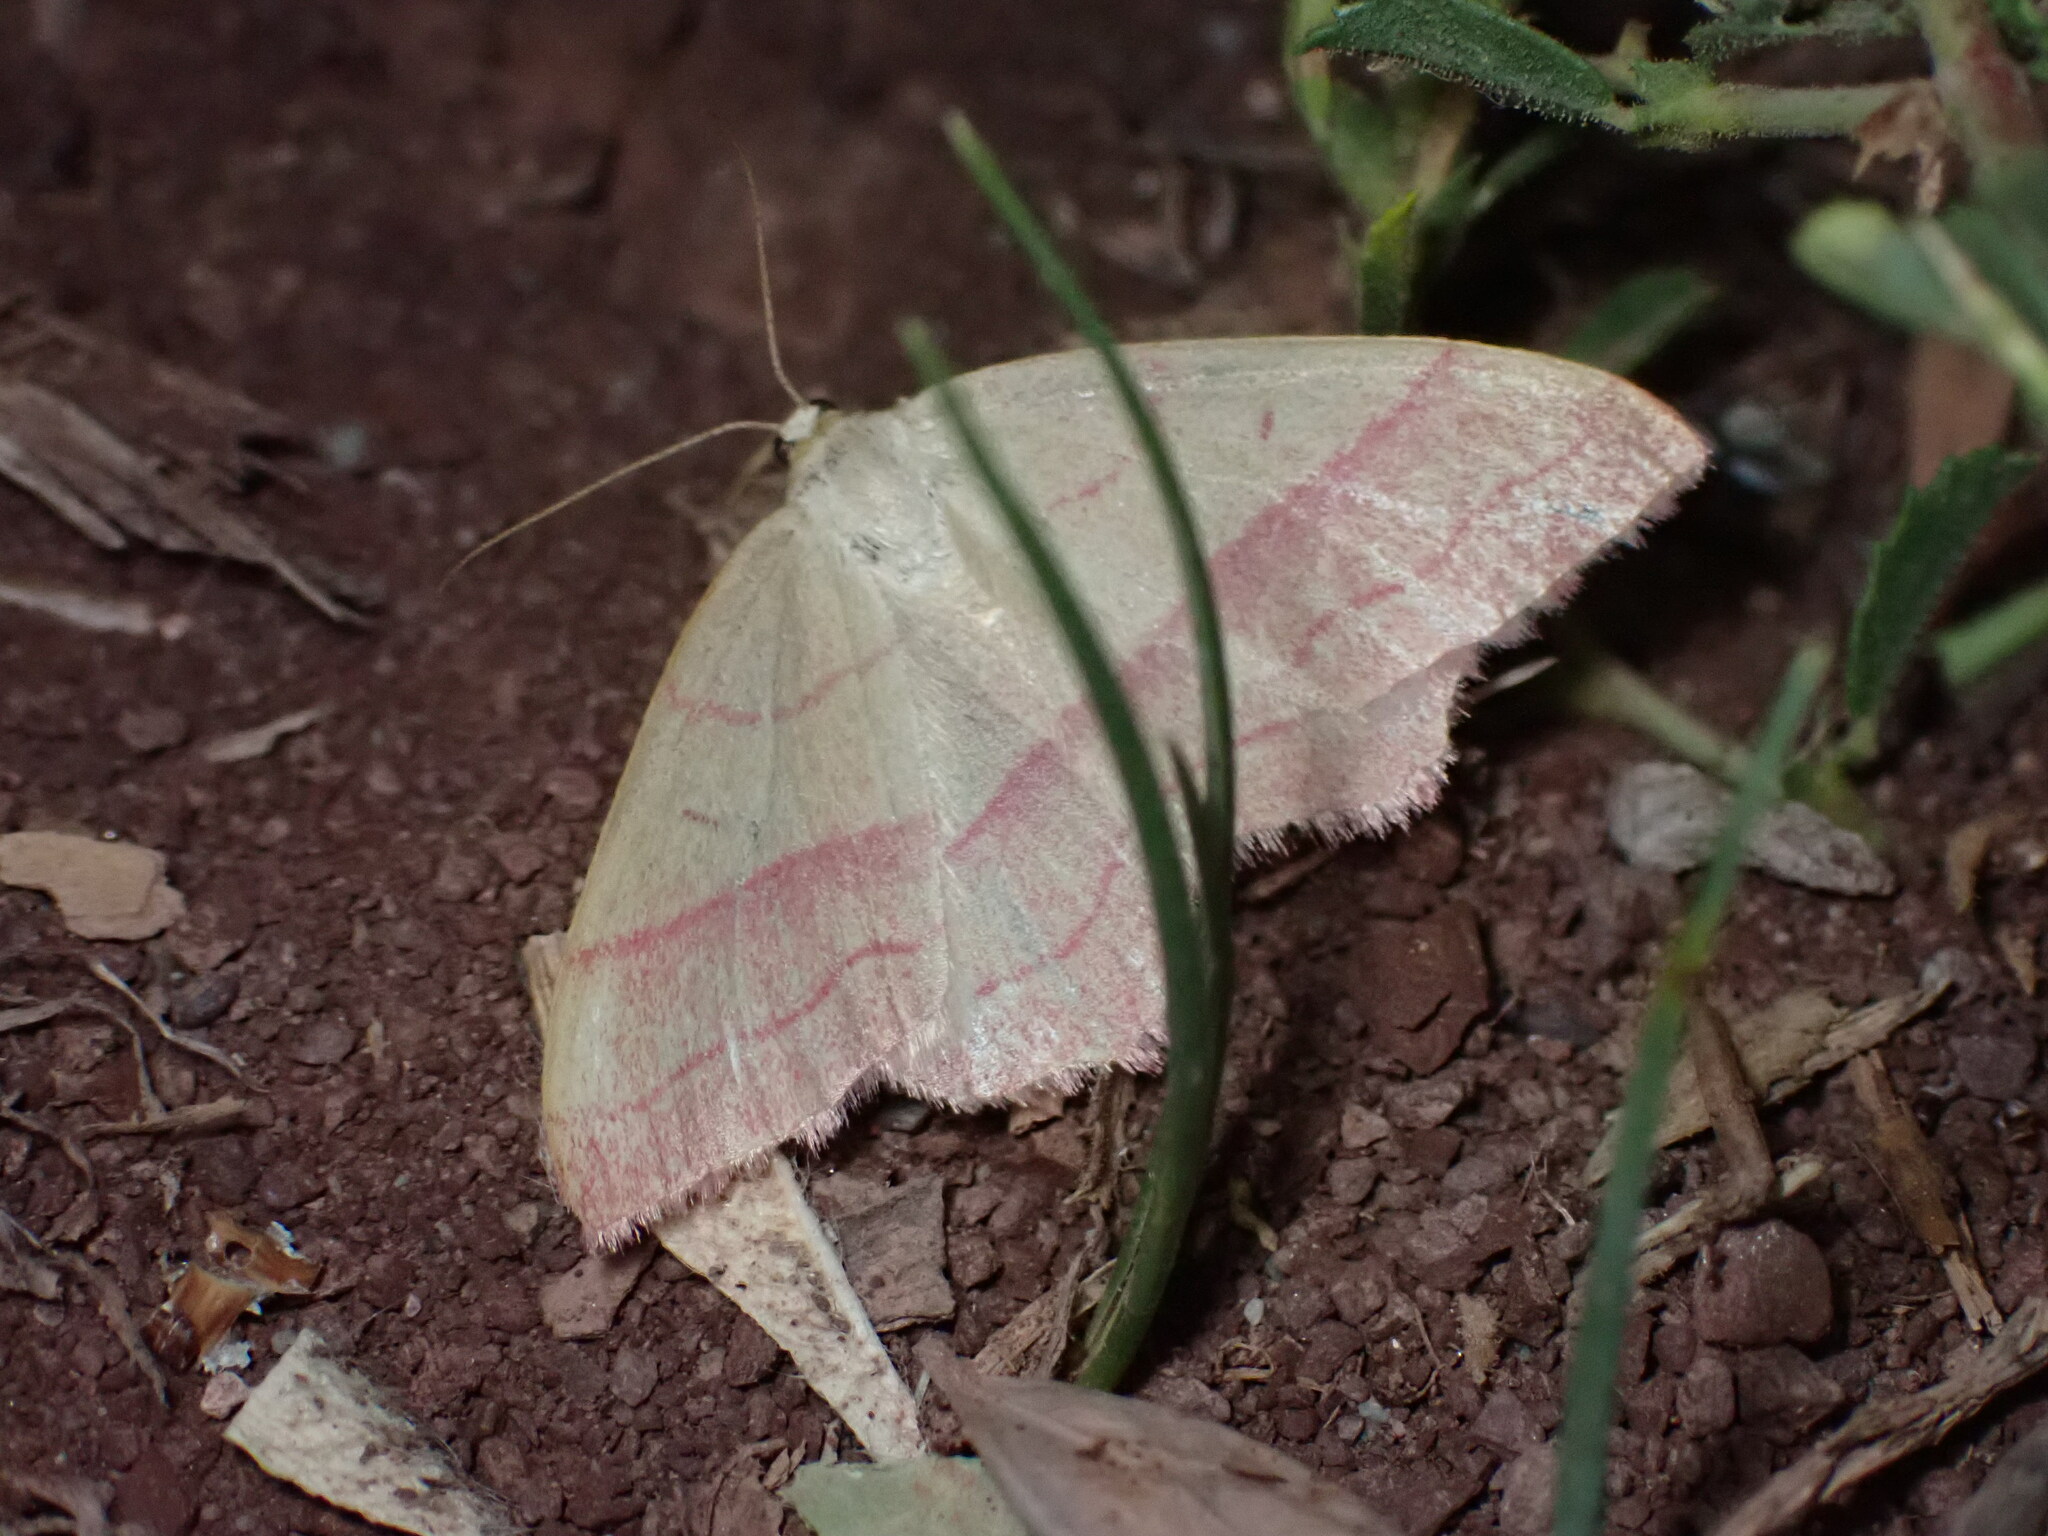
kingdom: Animalia
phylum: Arthropoda
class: Insecta
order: Lepidoptera
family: Geometridae
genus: Rhodostrophia
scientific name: Rhodostrophia vibicaria
